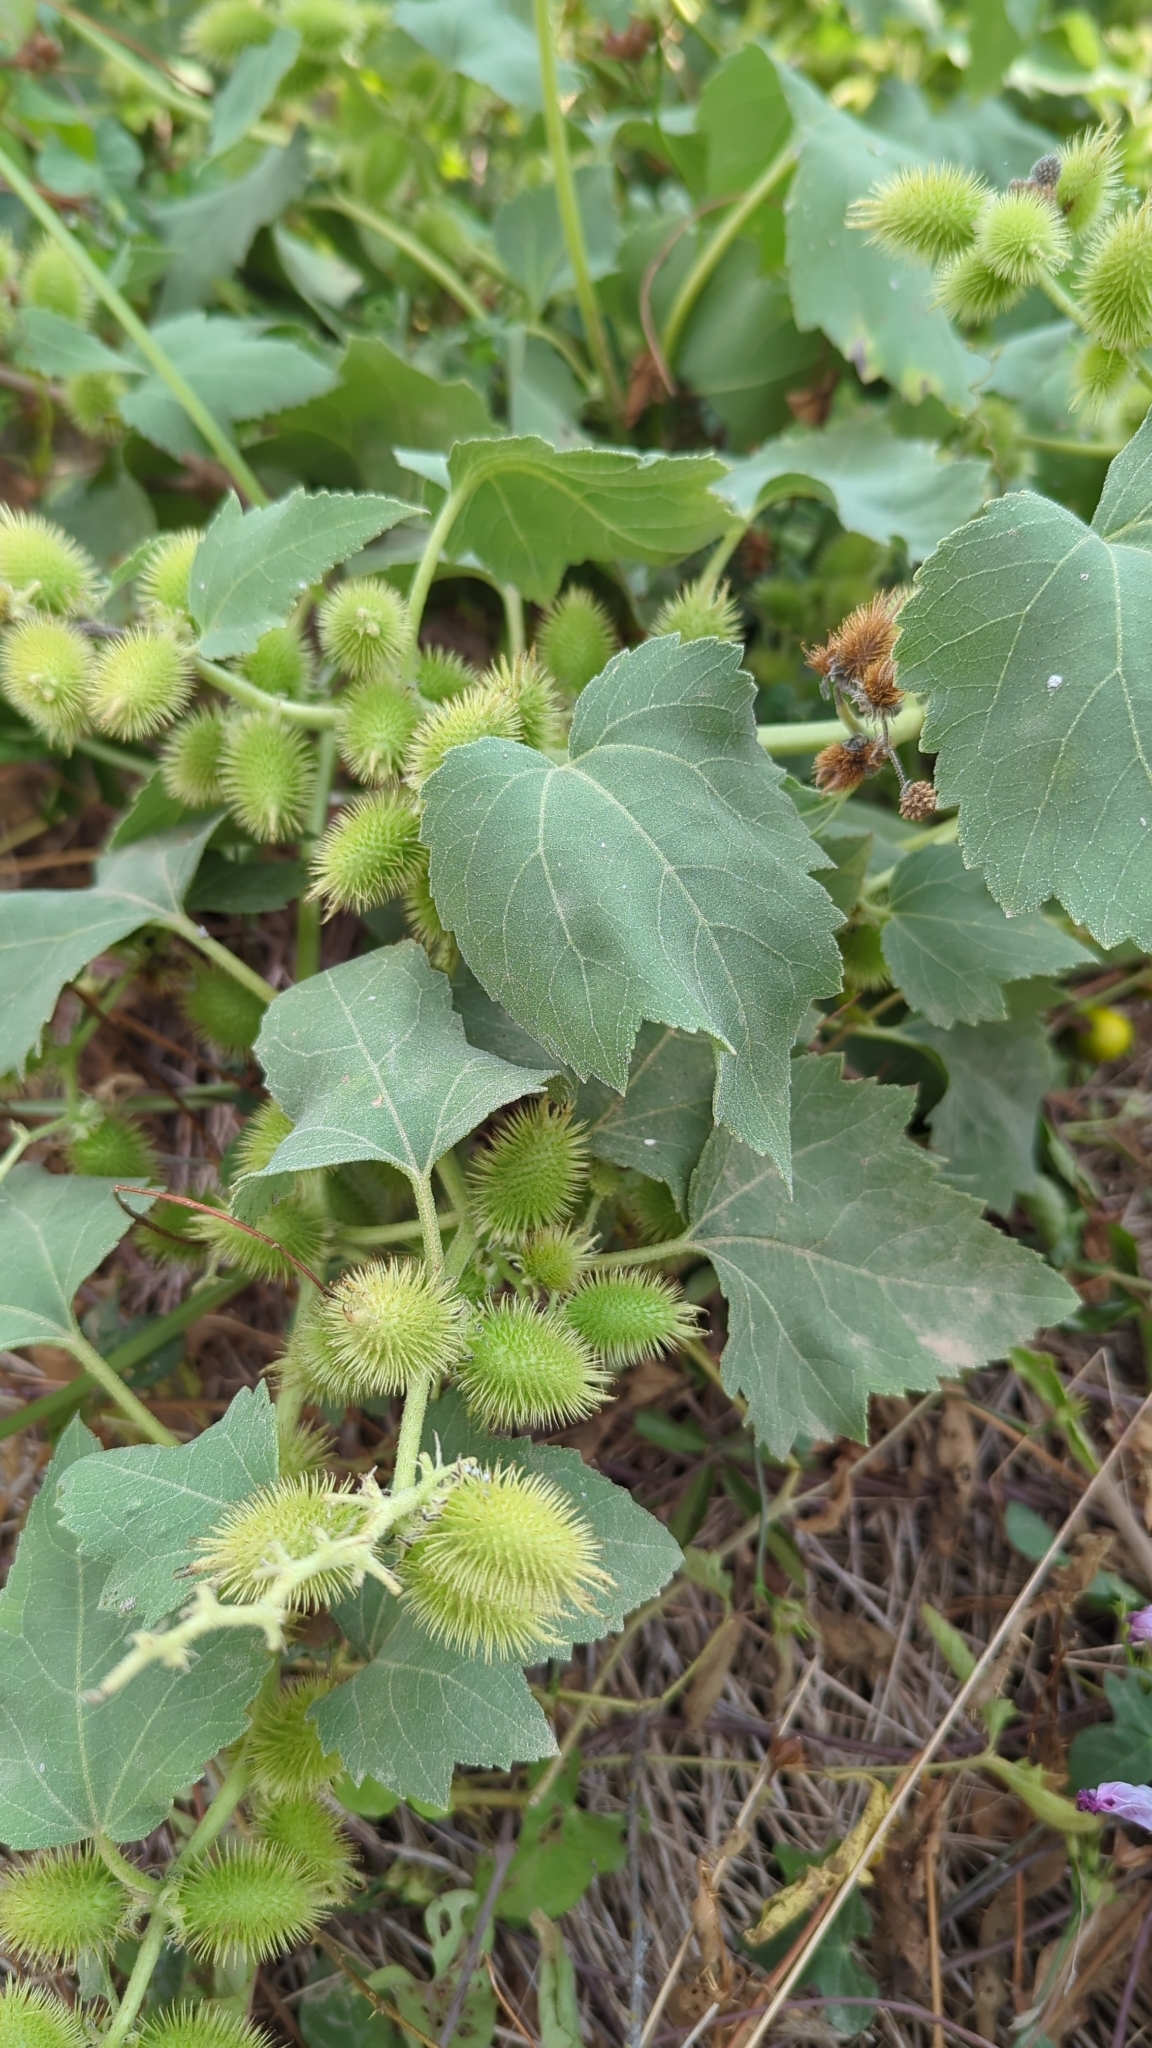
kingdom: Plantae
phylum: Tracheophyta
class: Magnoliopsida
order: Asterales
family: Asteraceae
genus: Xanthium
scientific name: Xanthium strumarium
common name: Rough cocklebur
